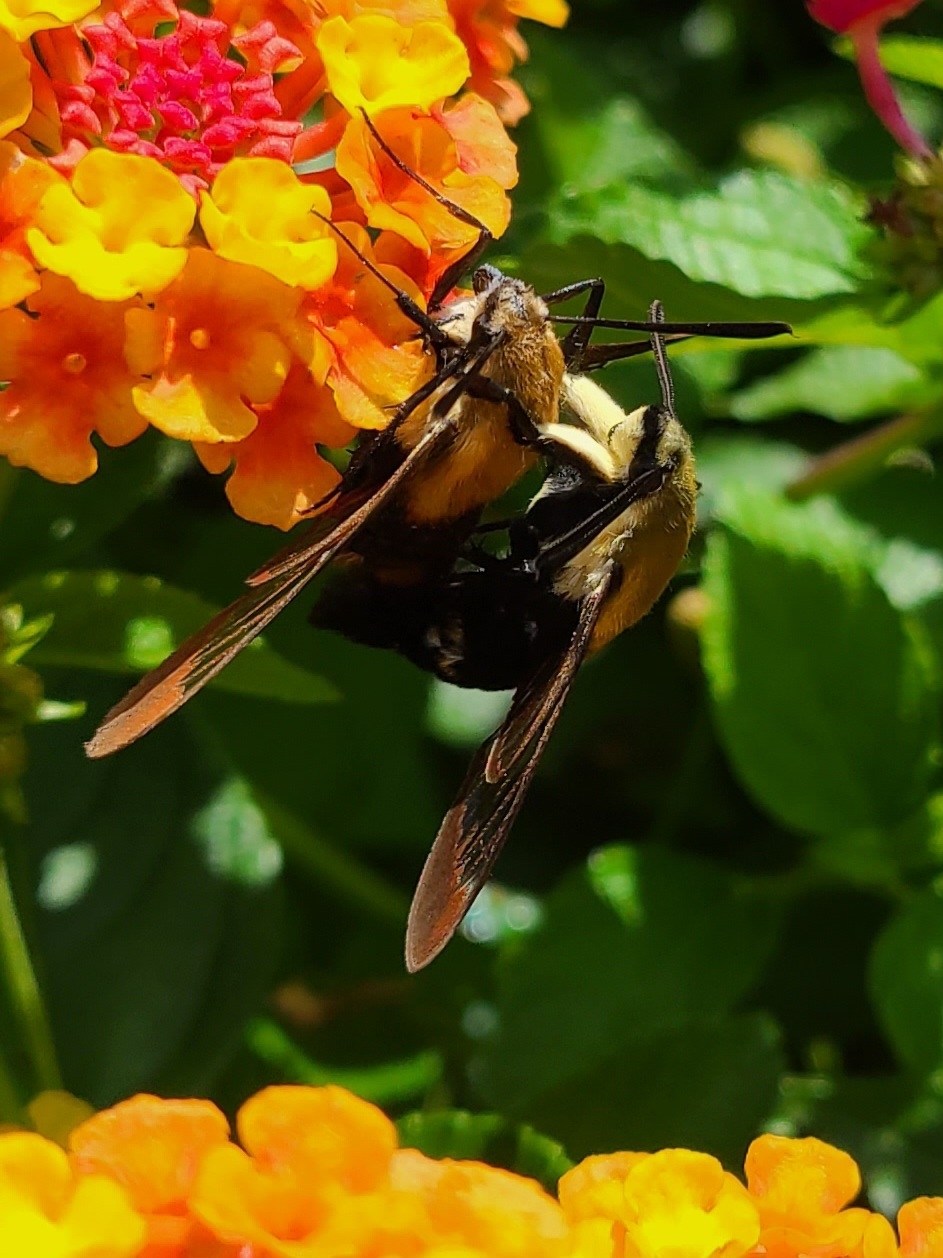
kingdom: Animalia
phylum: Arthropoda
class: Insecta
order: Lepidoptera
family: Sphingidae
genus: Hemaris
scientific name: Hemaris diffinis
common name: Bumblebee moth
